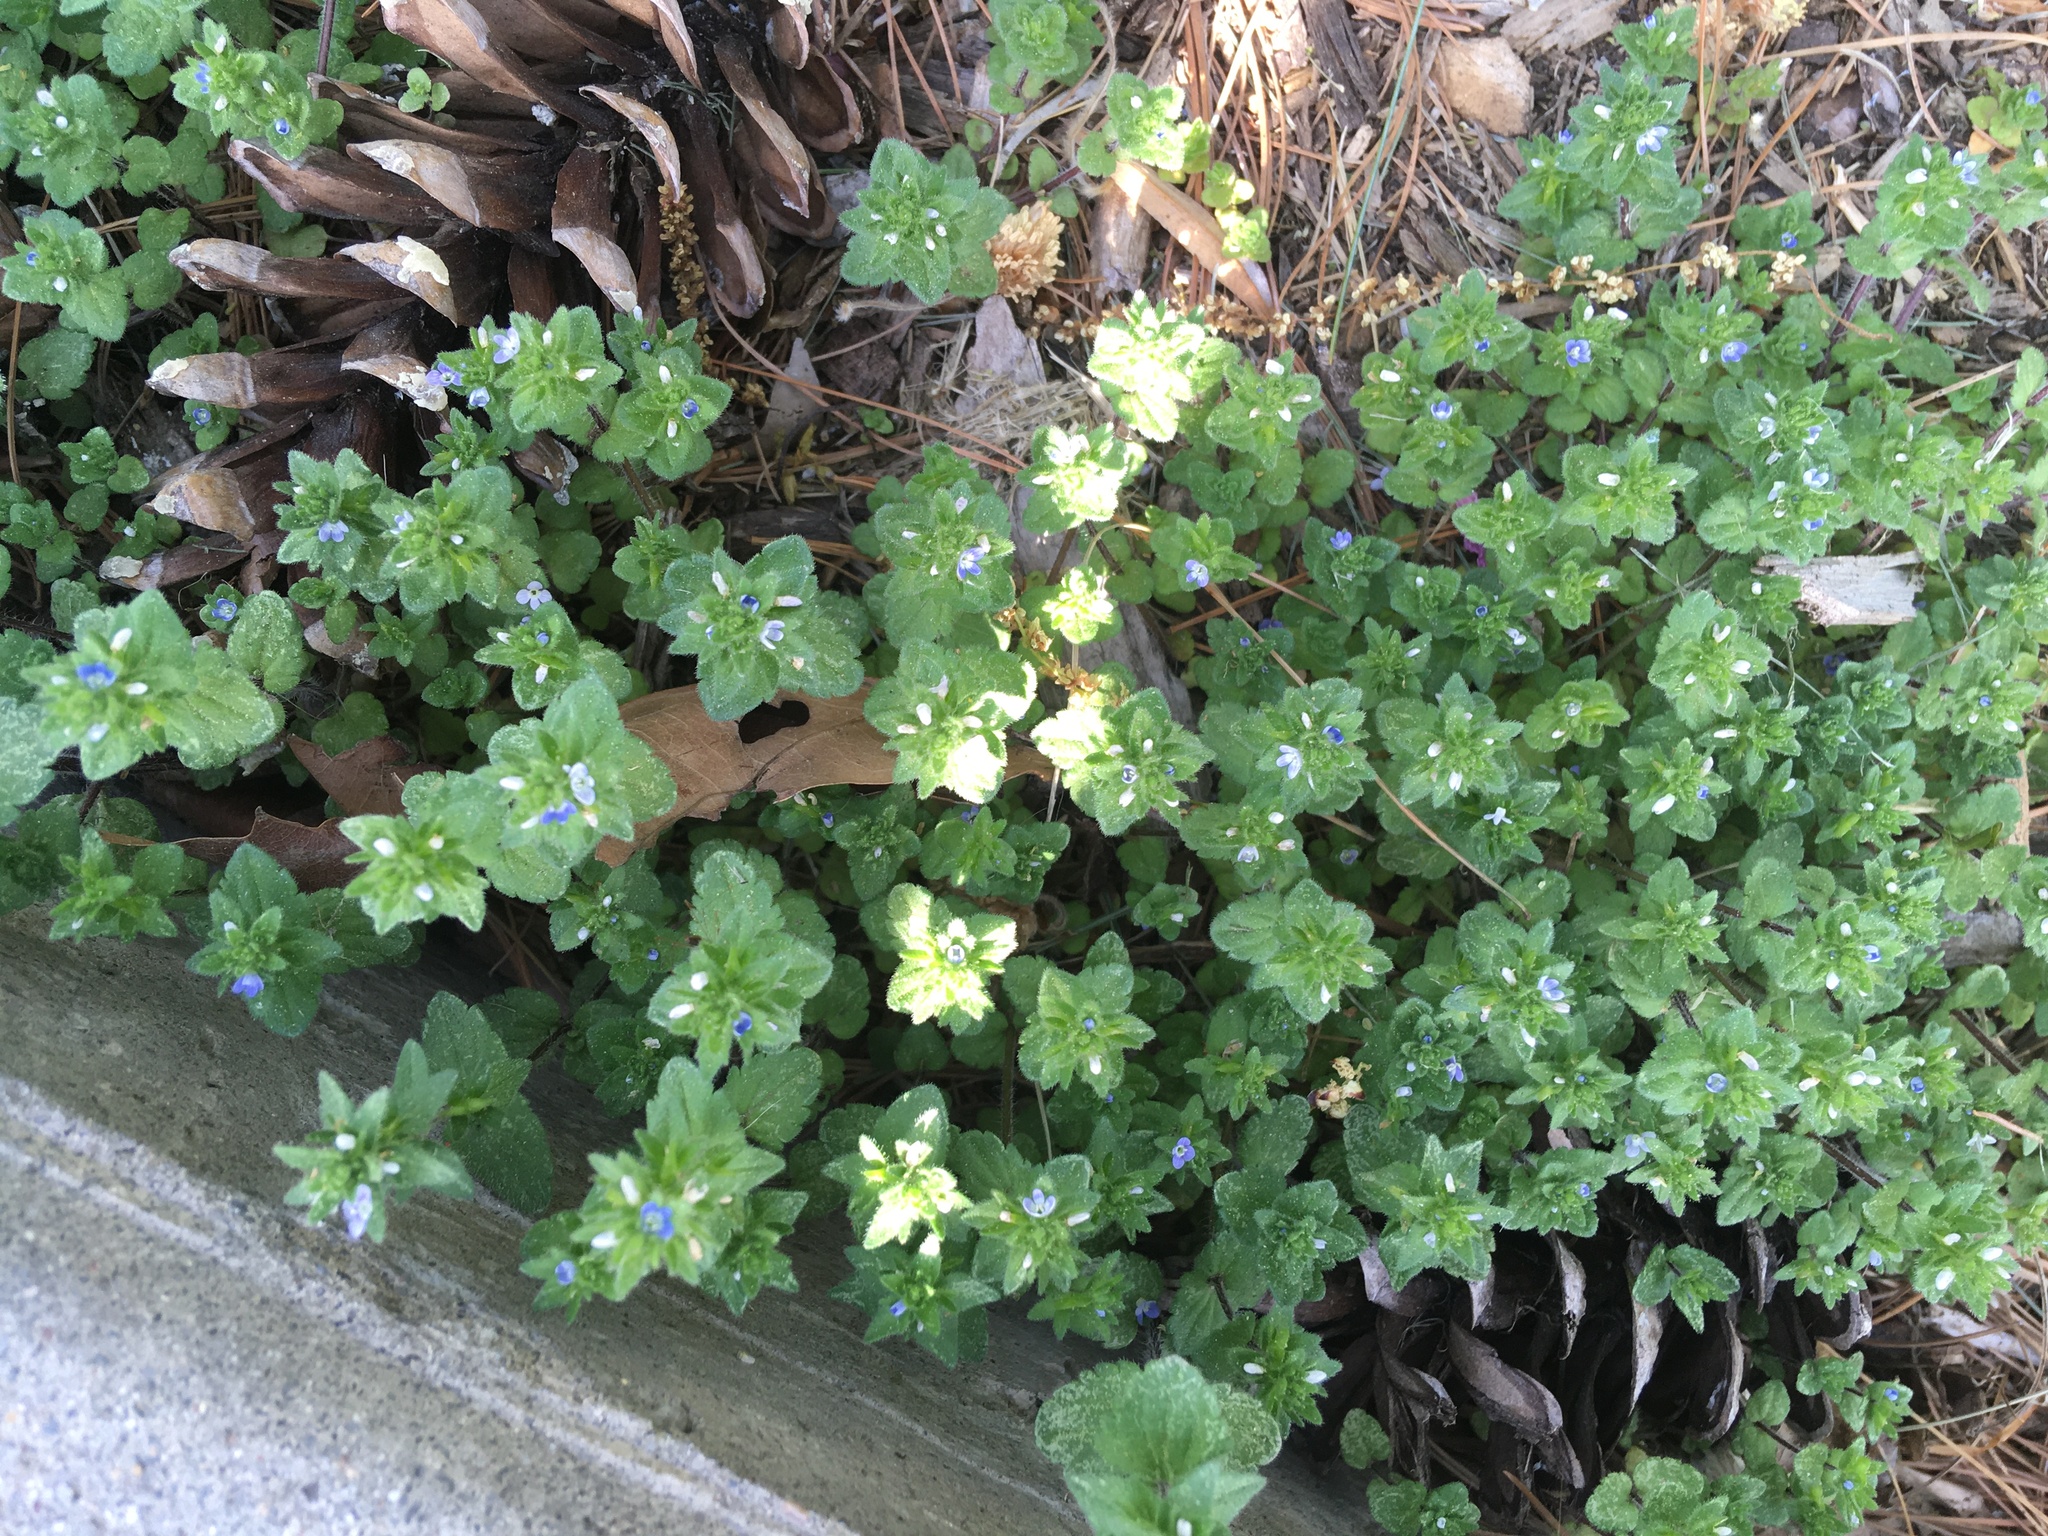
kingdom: Plantae
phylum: Tracheophyta
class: Magnoliopsida
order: Lamiales
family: Plantaginaceae
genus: Veronica
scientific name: Veronica arvensis
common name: Corn speedwell
